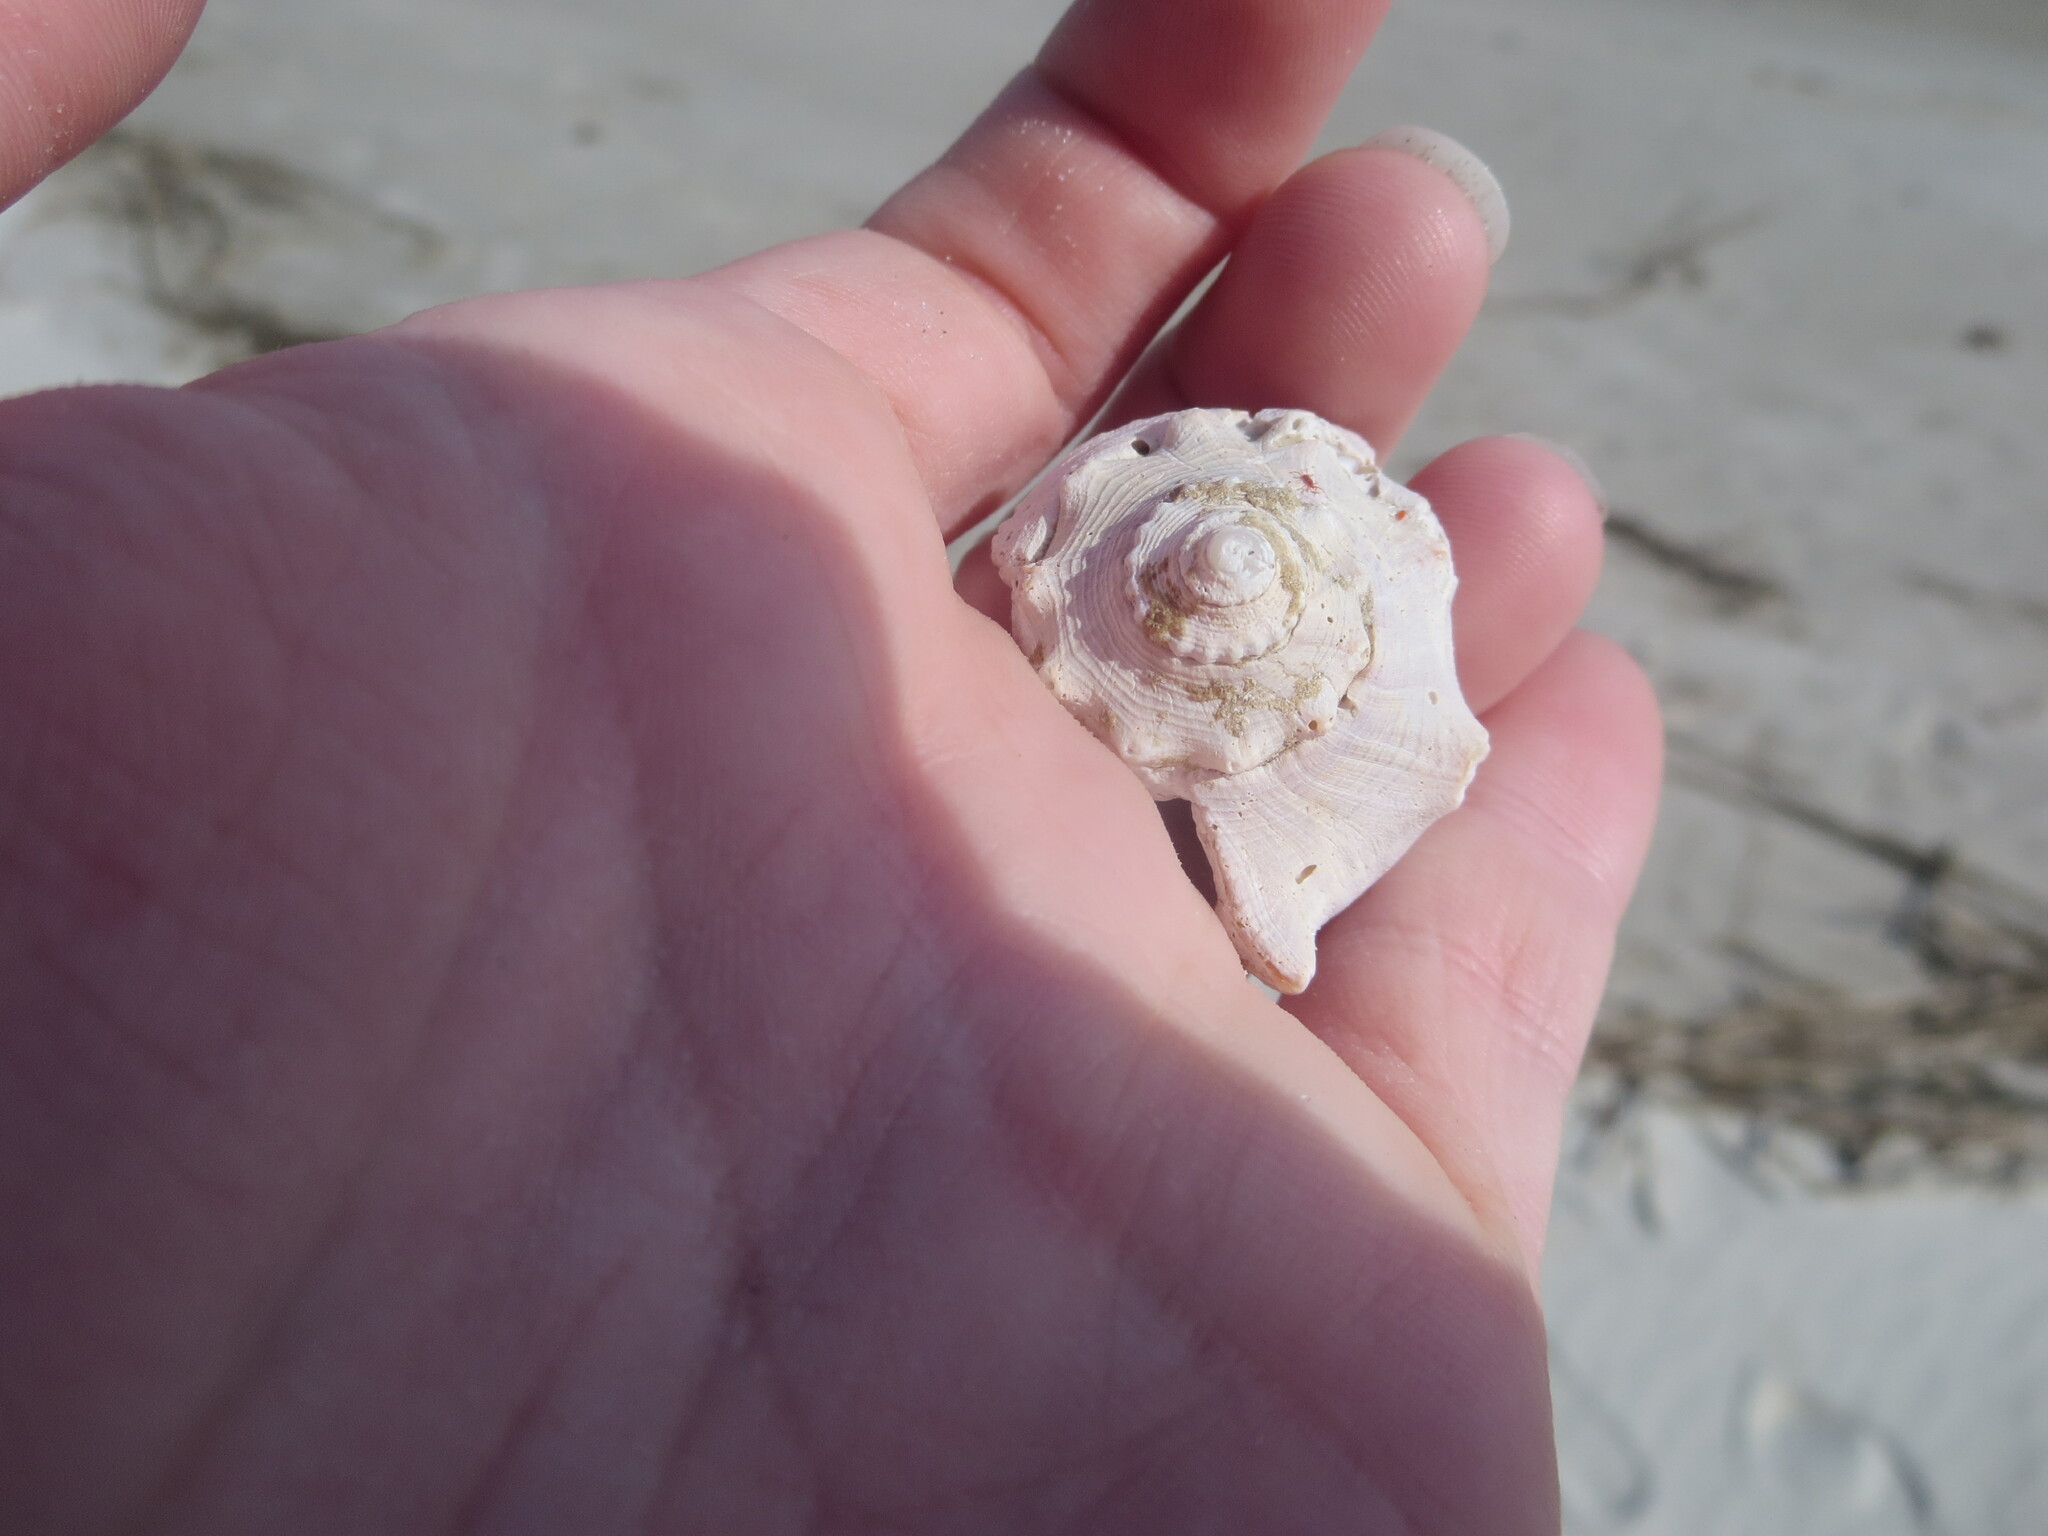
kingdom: Animalia
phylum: Mollusca
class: Gastropoda
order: Neogastropoda
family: Busyconidae
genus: Busycon
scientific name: Busycon carica
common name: Knobbed whelk
